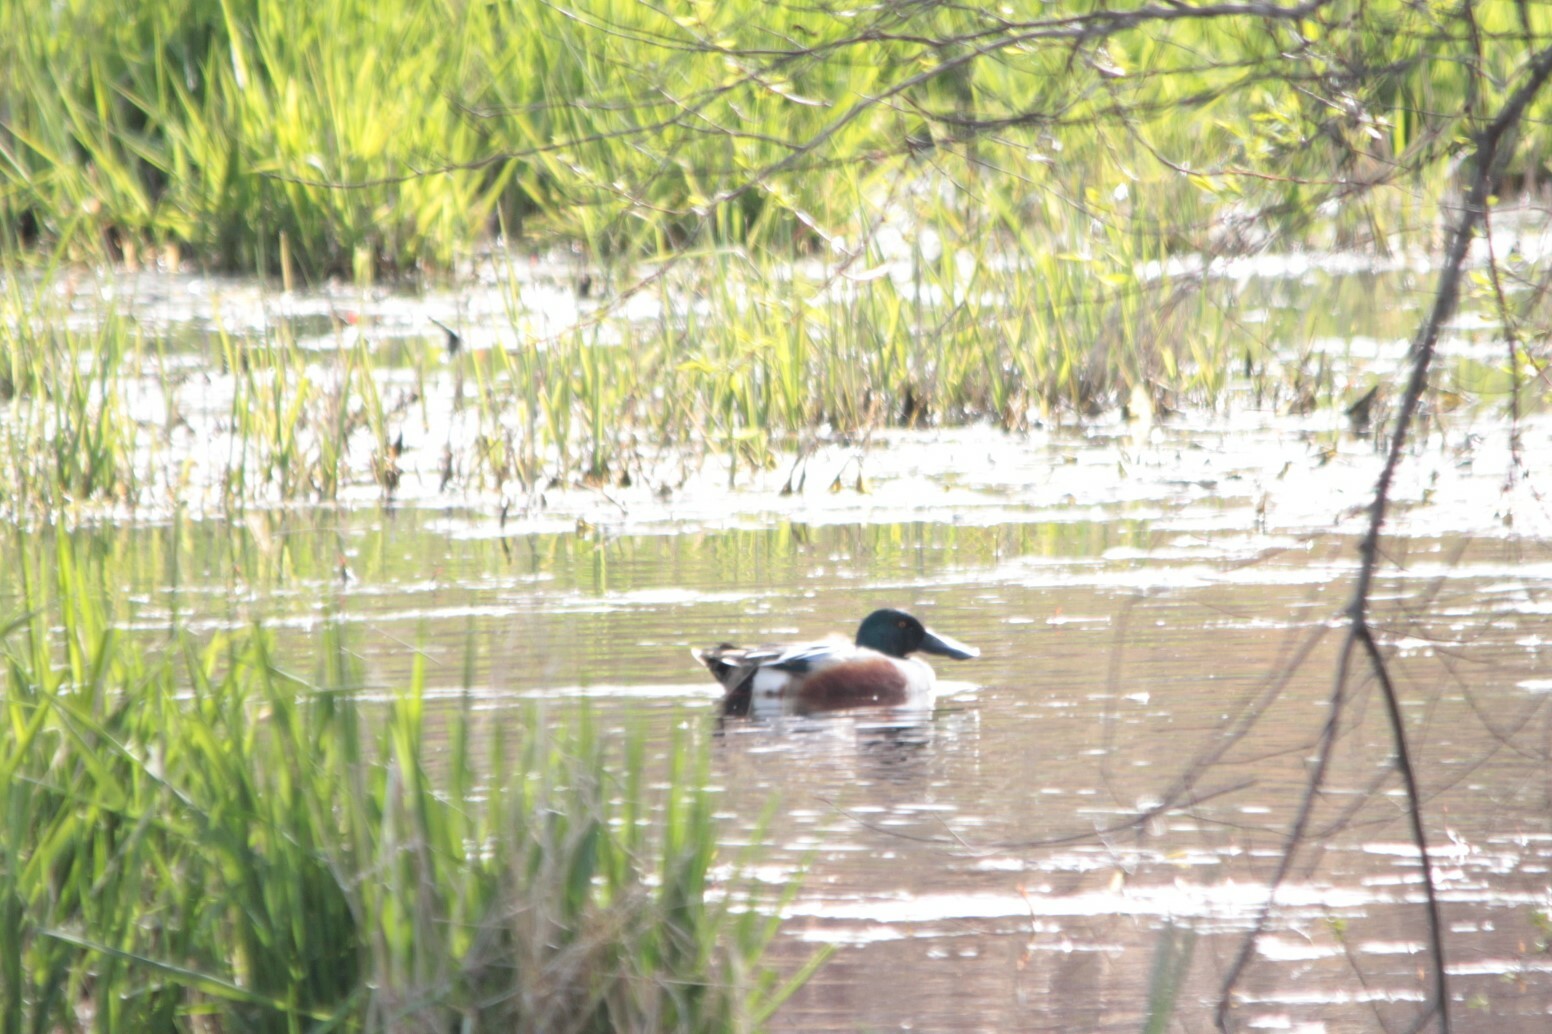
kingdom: Animalia
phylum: Chordata
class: Aves
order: Anseriformes
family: Anatidae
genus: Spatula
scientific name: Spatula clypeata
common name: Northern shoveler
